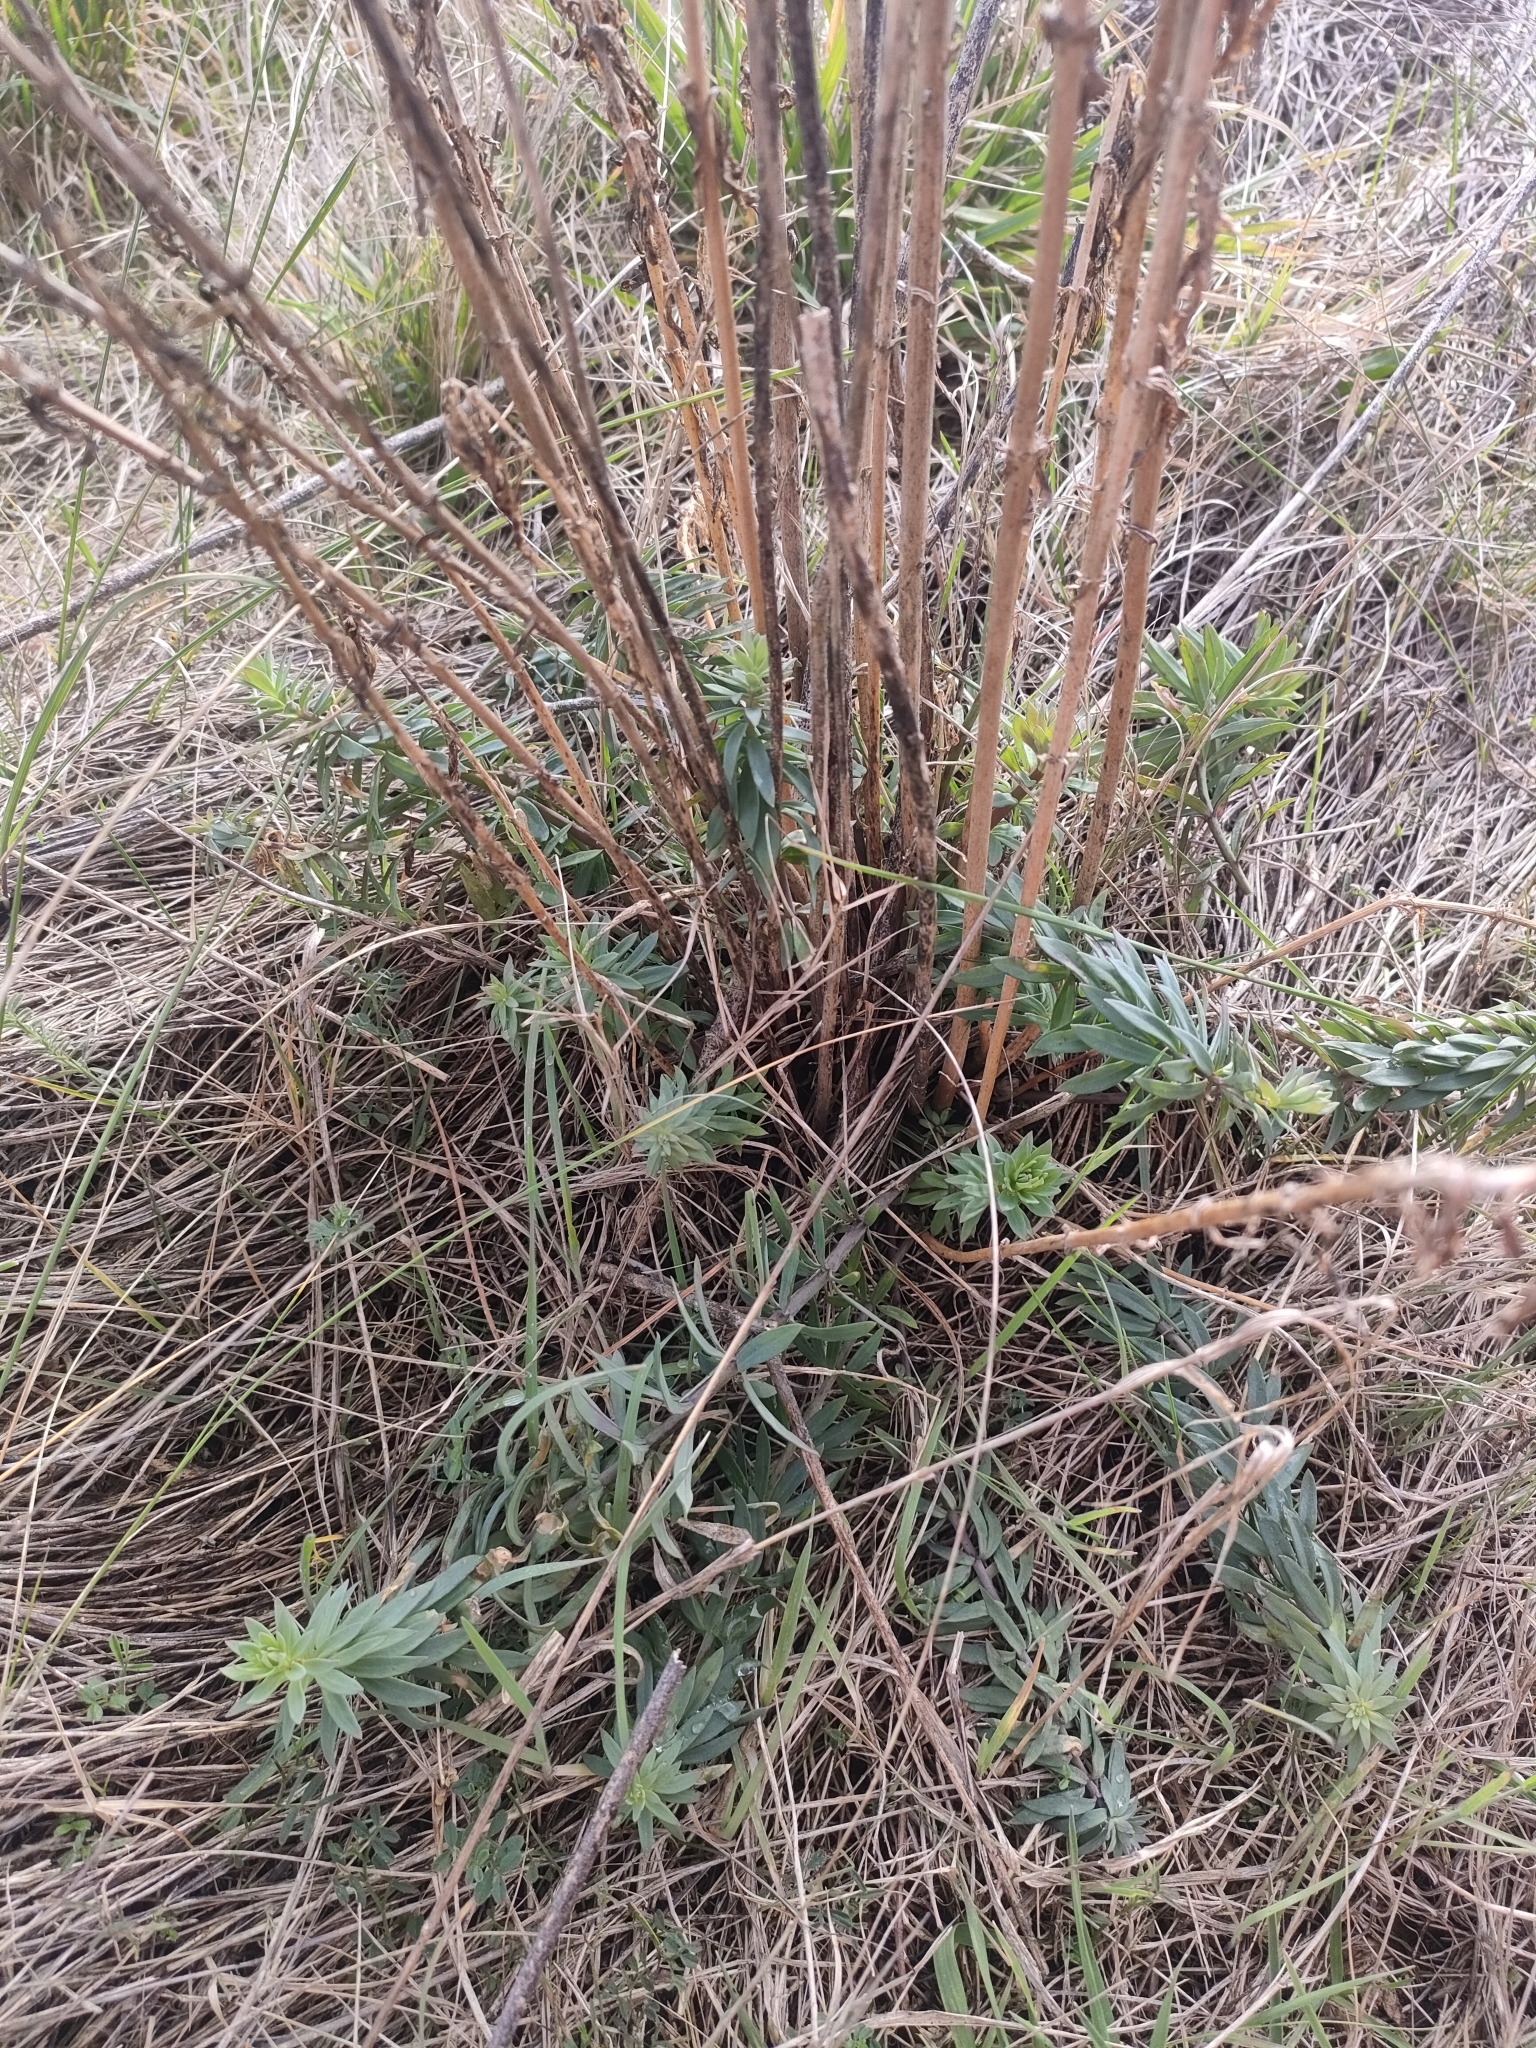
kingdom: Plantae
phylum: Tracheophyta
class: Magnoliopsida
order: Lamiales
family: Plantaginaceae
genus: Linaria
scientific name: Linaria purpurea
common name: Purple toadflax
